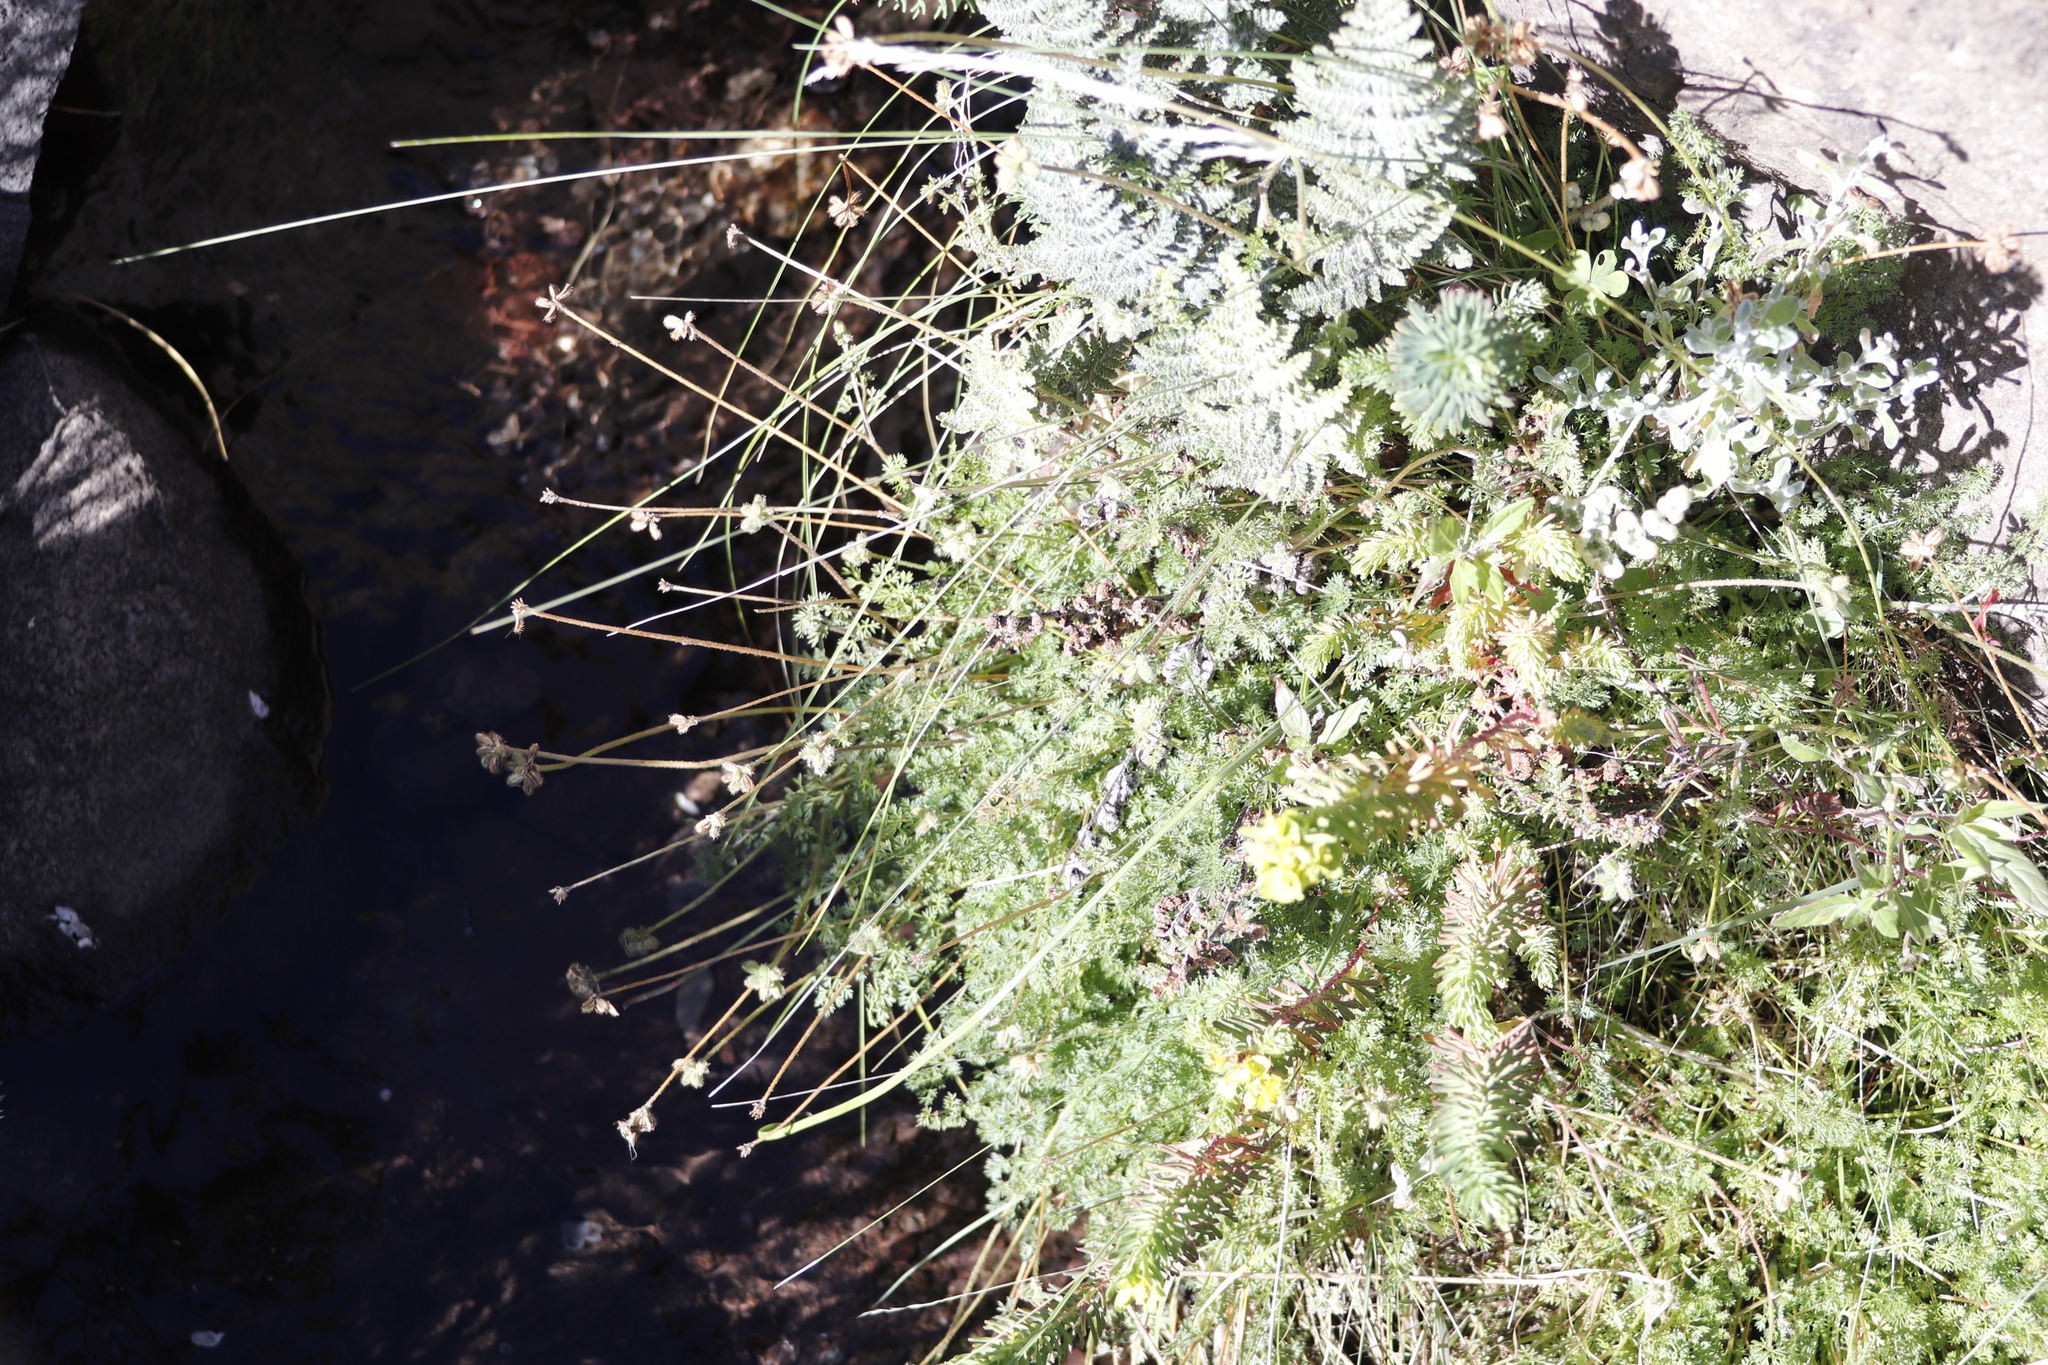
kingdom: Plantae
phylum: Tracheophyta
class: Liliopsida
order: Poales
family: Poaceae
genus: Tragus
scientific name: Tragus berteronianus
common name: African bur-grass
